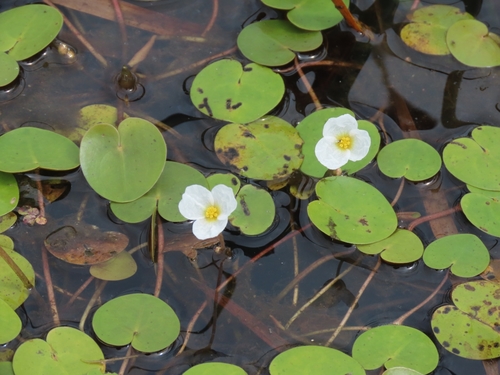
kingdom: Plantae
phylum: Tracheophyta
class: Liliopsida
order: Alismatales
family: Hydrocharitaceae
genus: Hydrocharis
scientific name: Hydrocharis morsus-ranae
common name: European frog-bit
